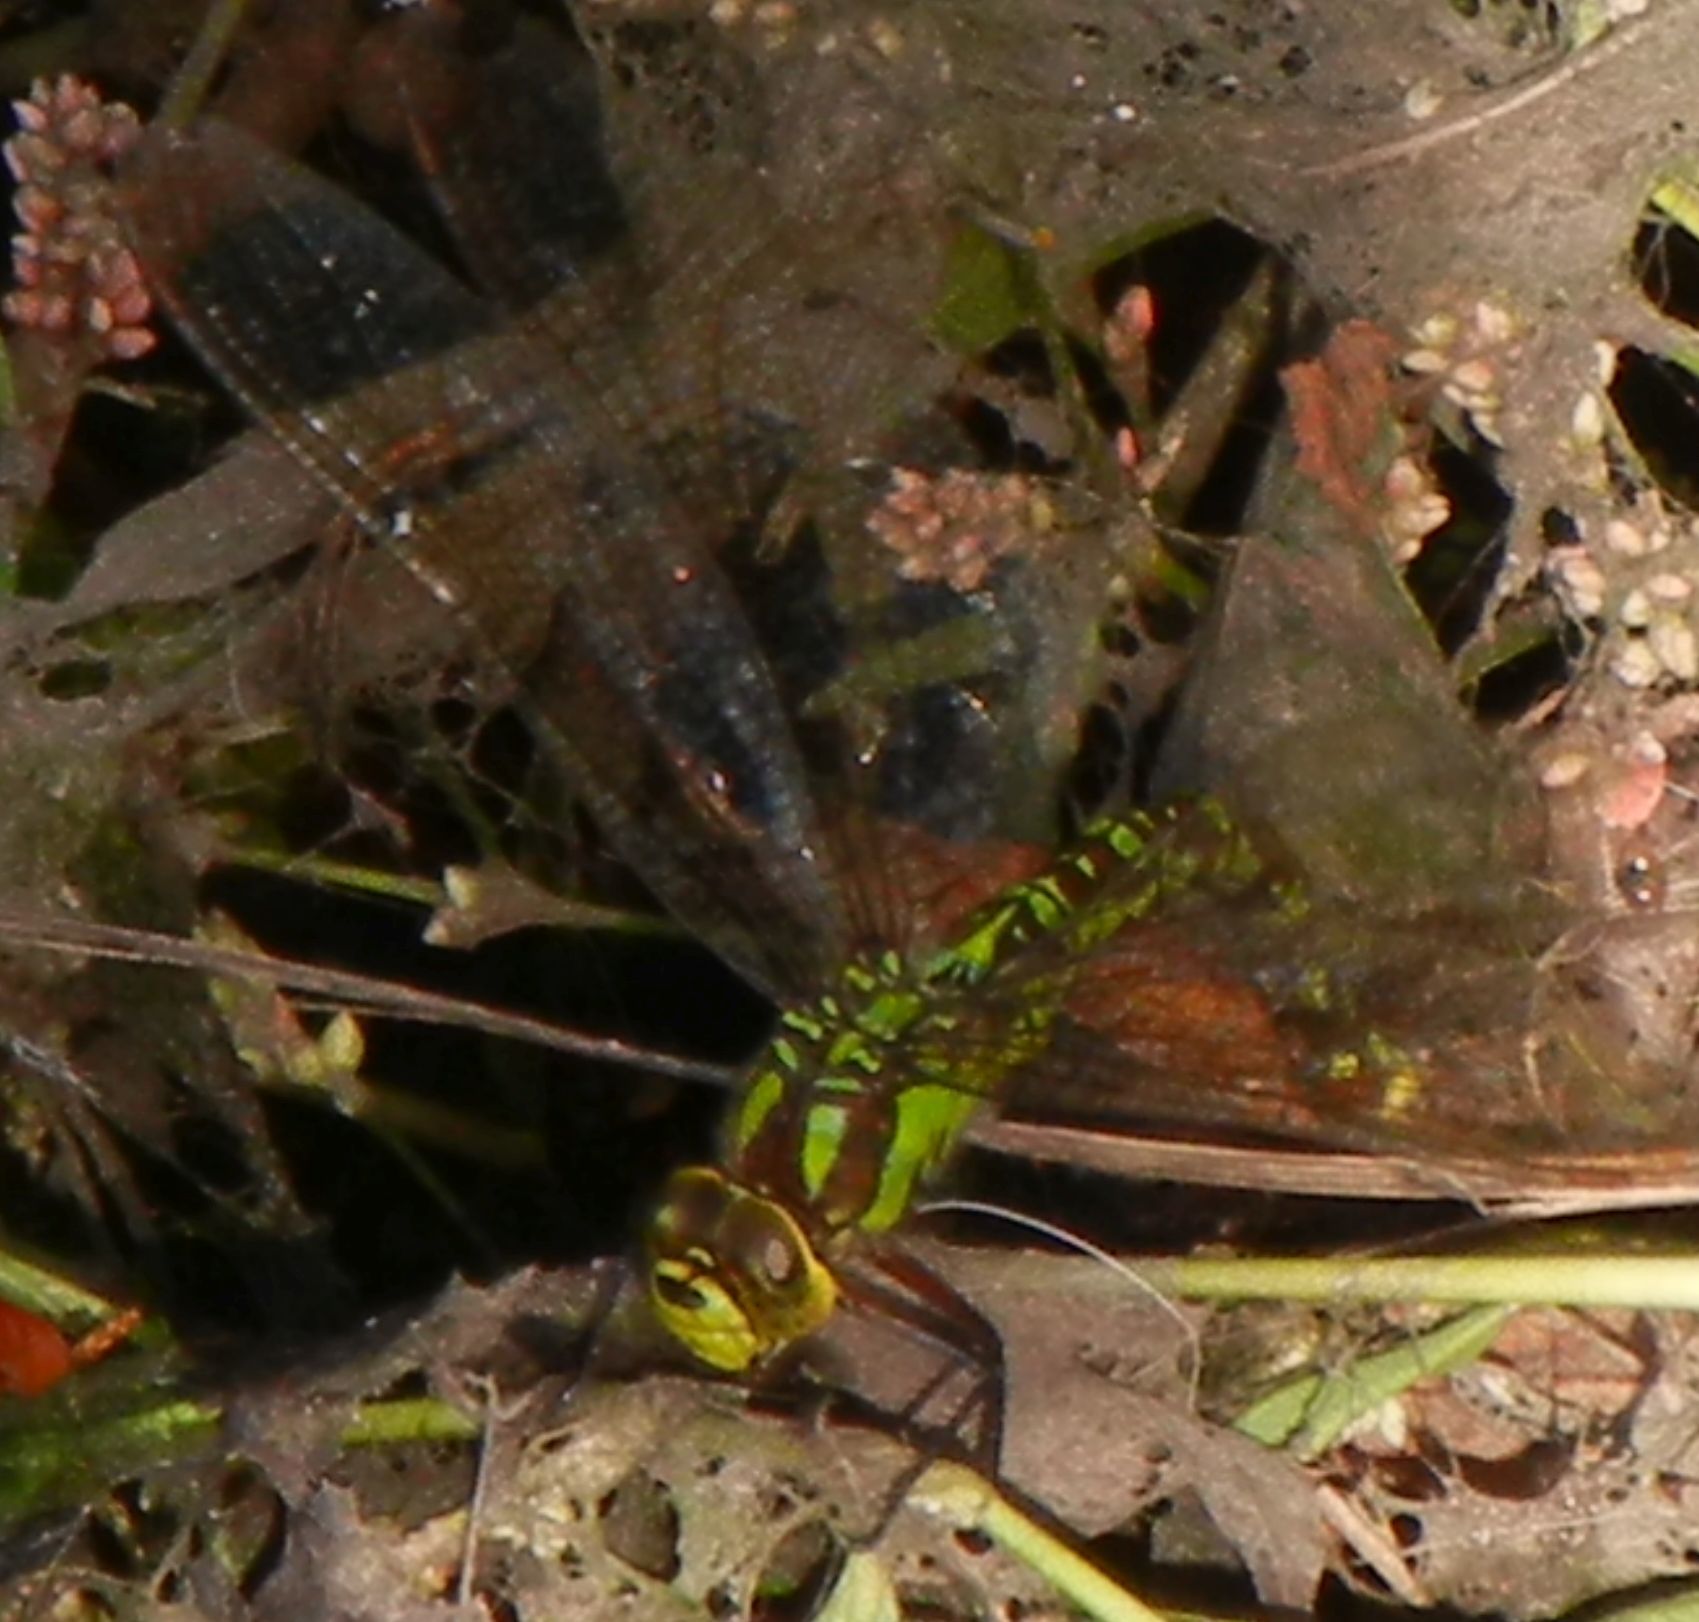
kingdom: Animalia
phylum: Arthropoda
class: Insecta
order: Odonata
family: Aeshnidae
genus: Aeshna
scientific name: Aeshna cyanea
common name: Southern hawker
